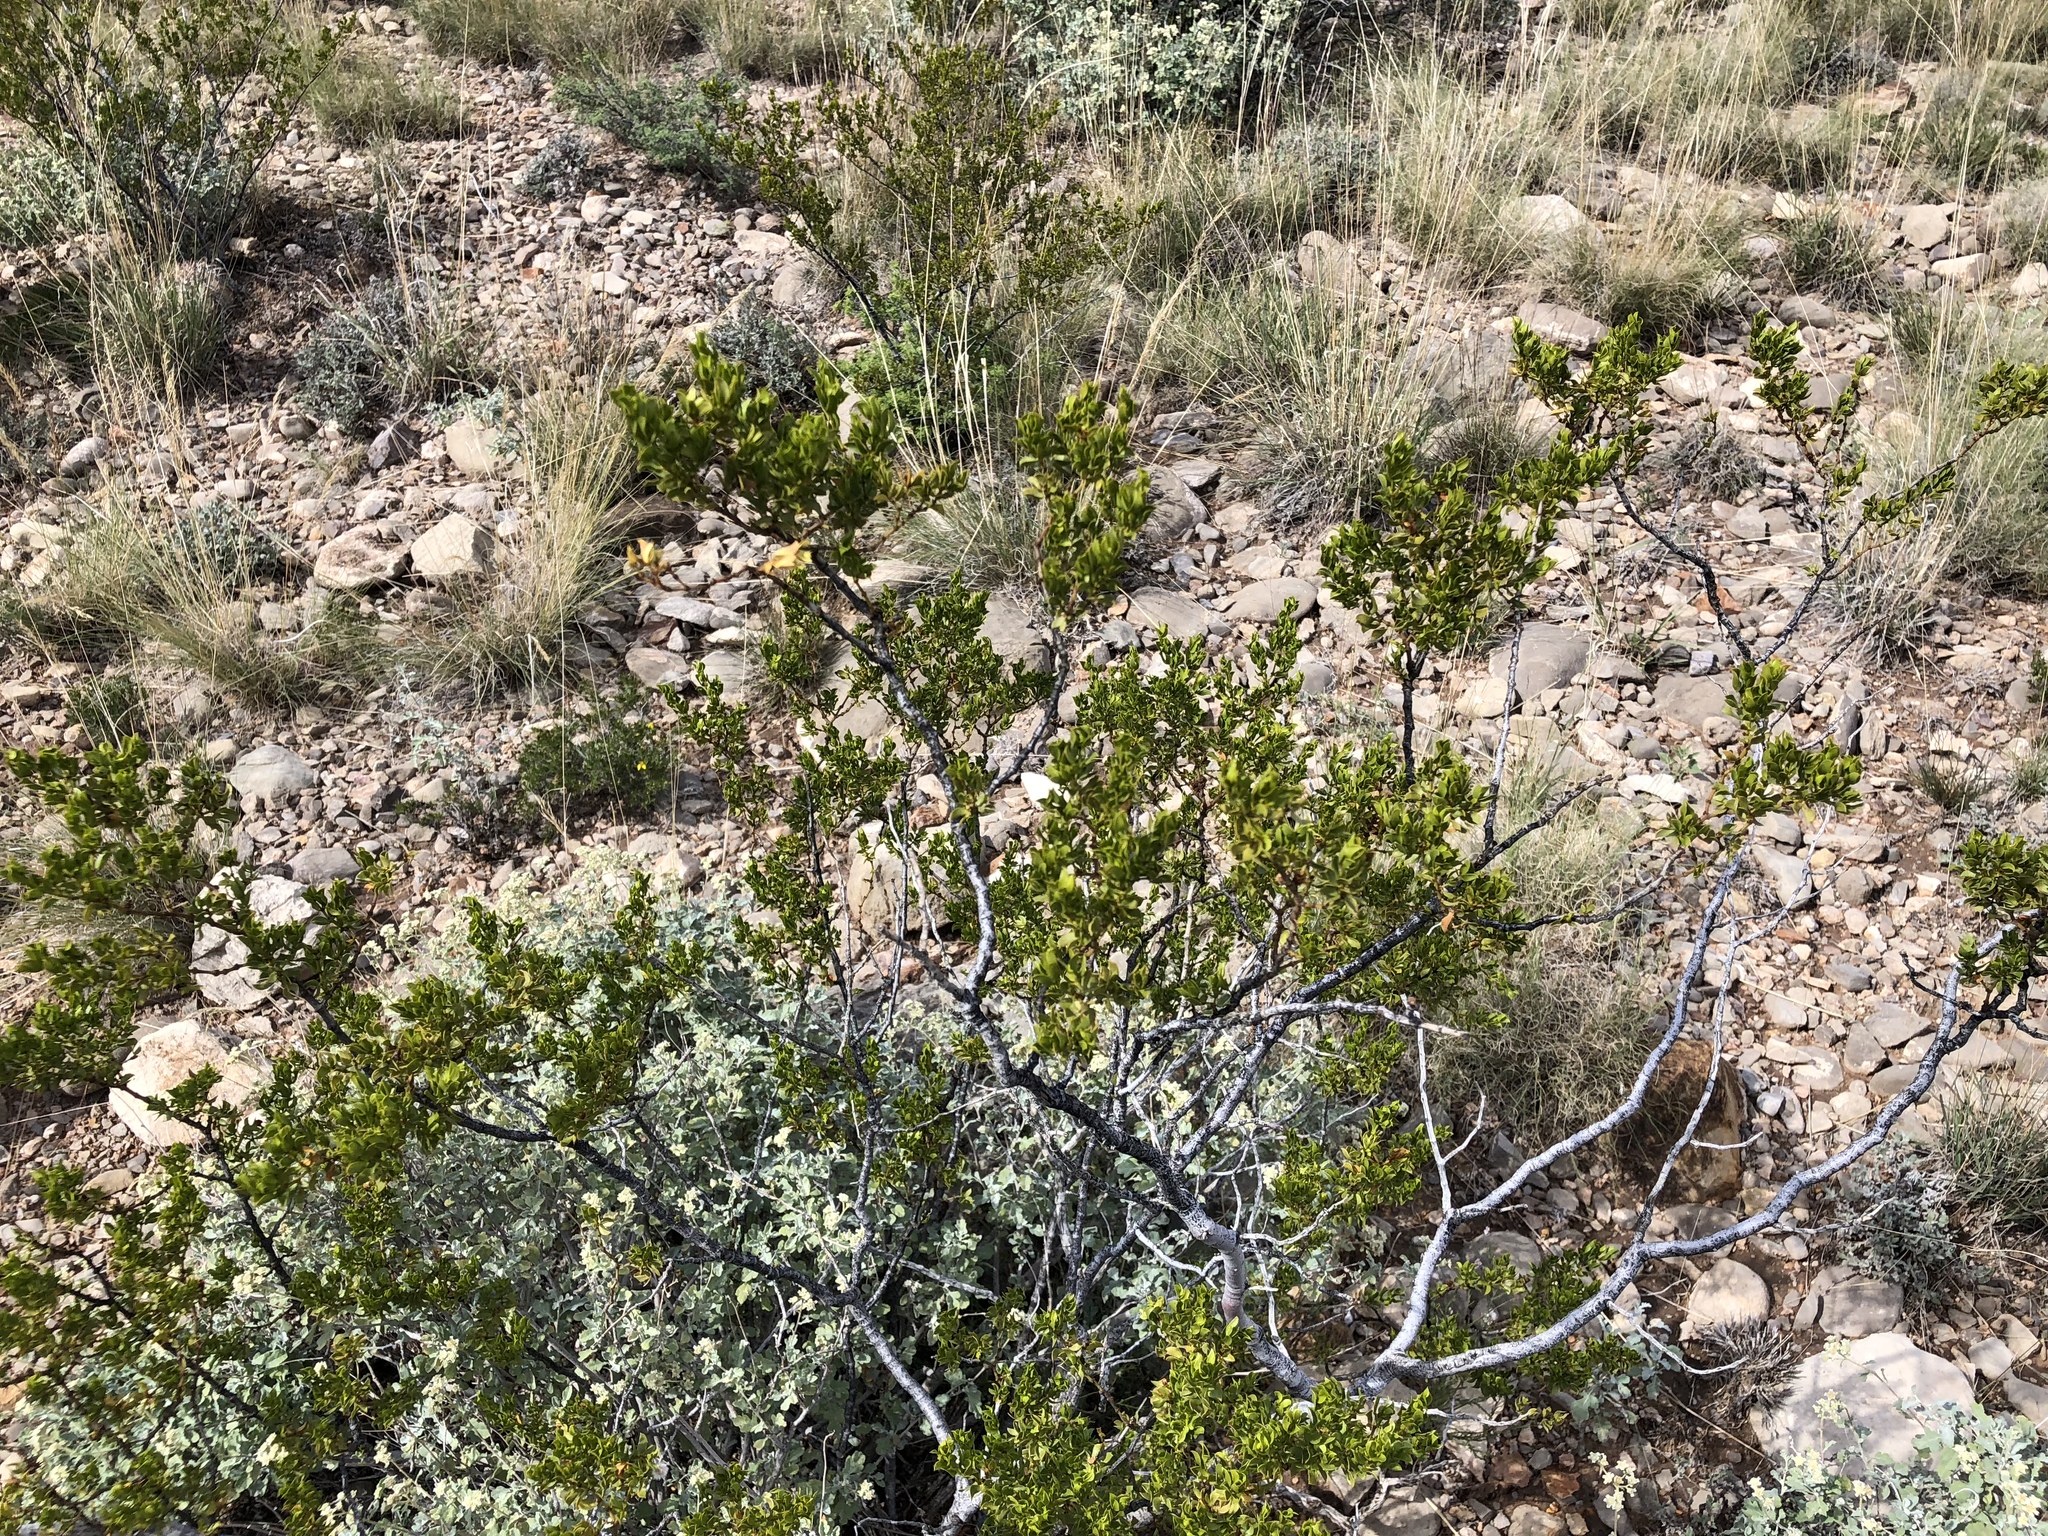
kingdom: Plantae
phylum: Tracheophyta
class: Magnoliopsida
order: Zygophyllales
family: Zygophyllaceae
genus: Larrea
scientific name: Larrea tridentata
